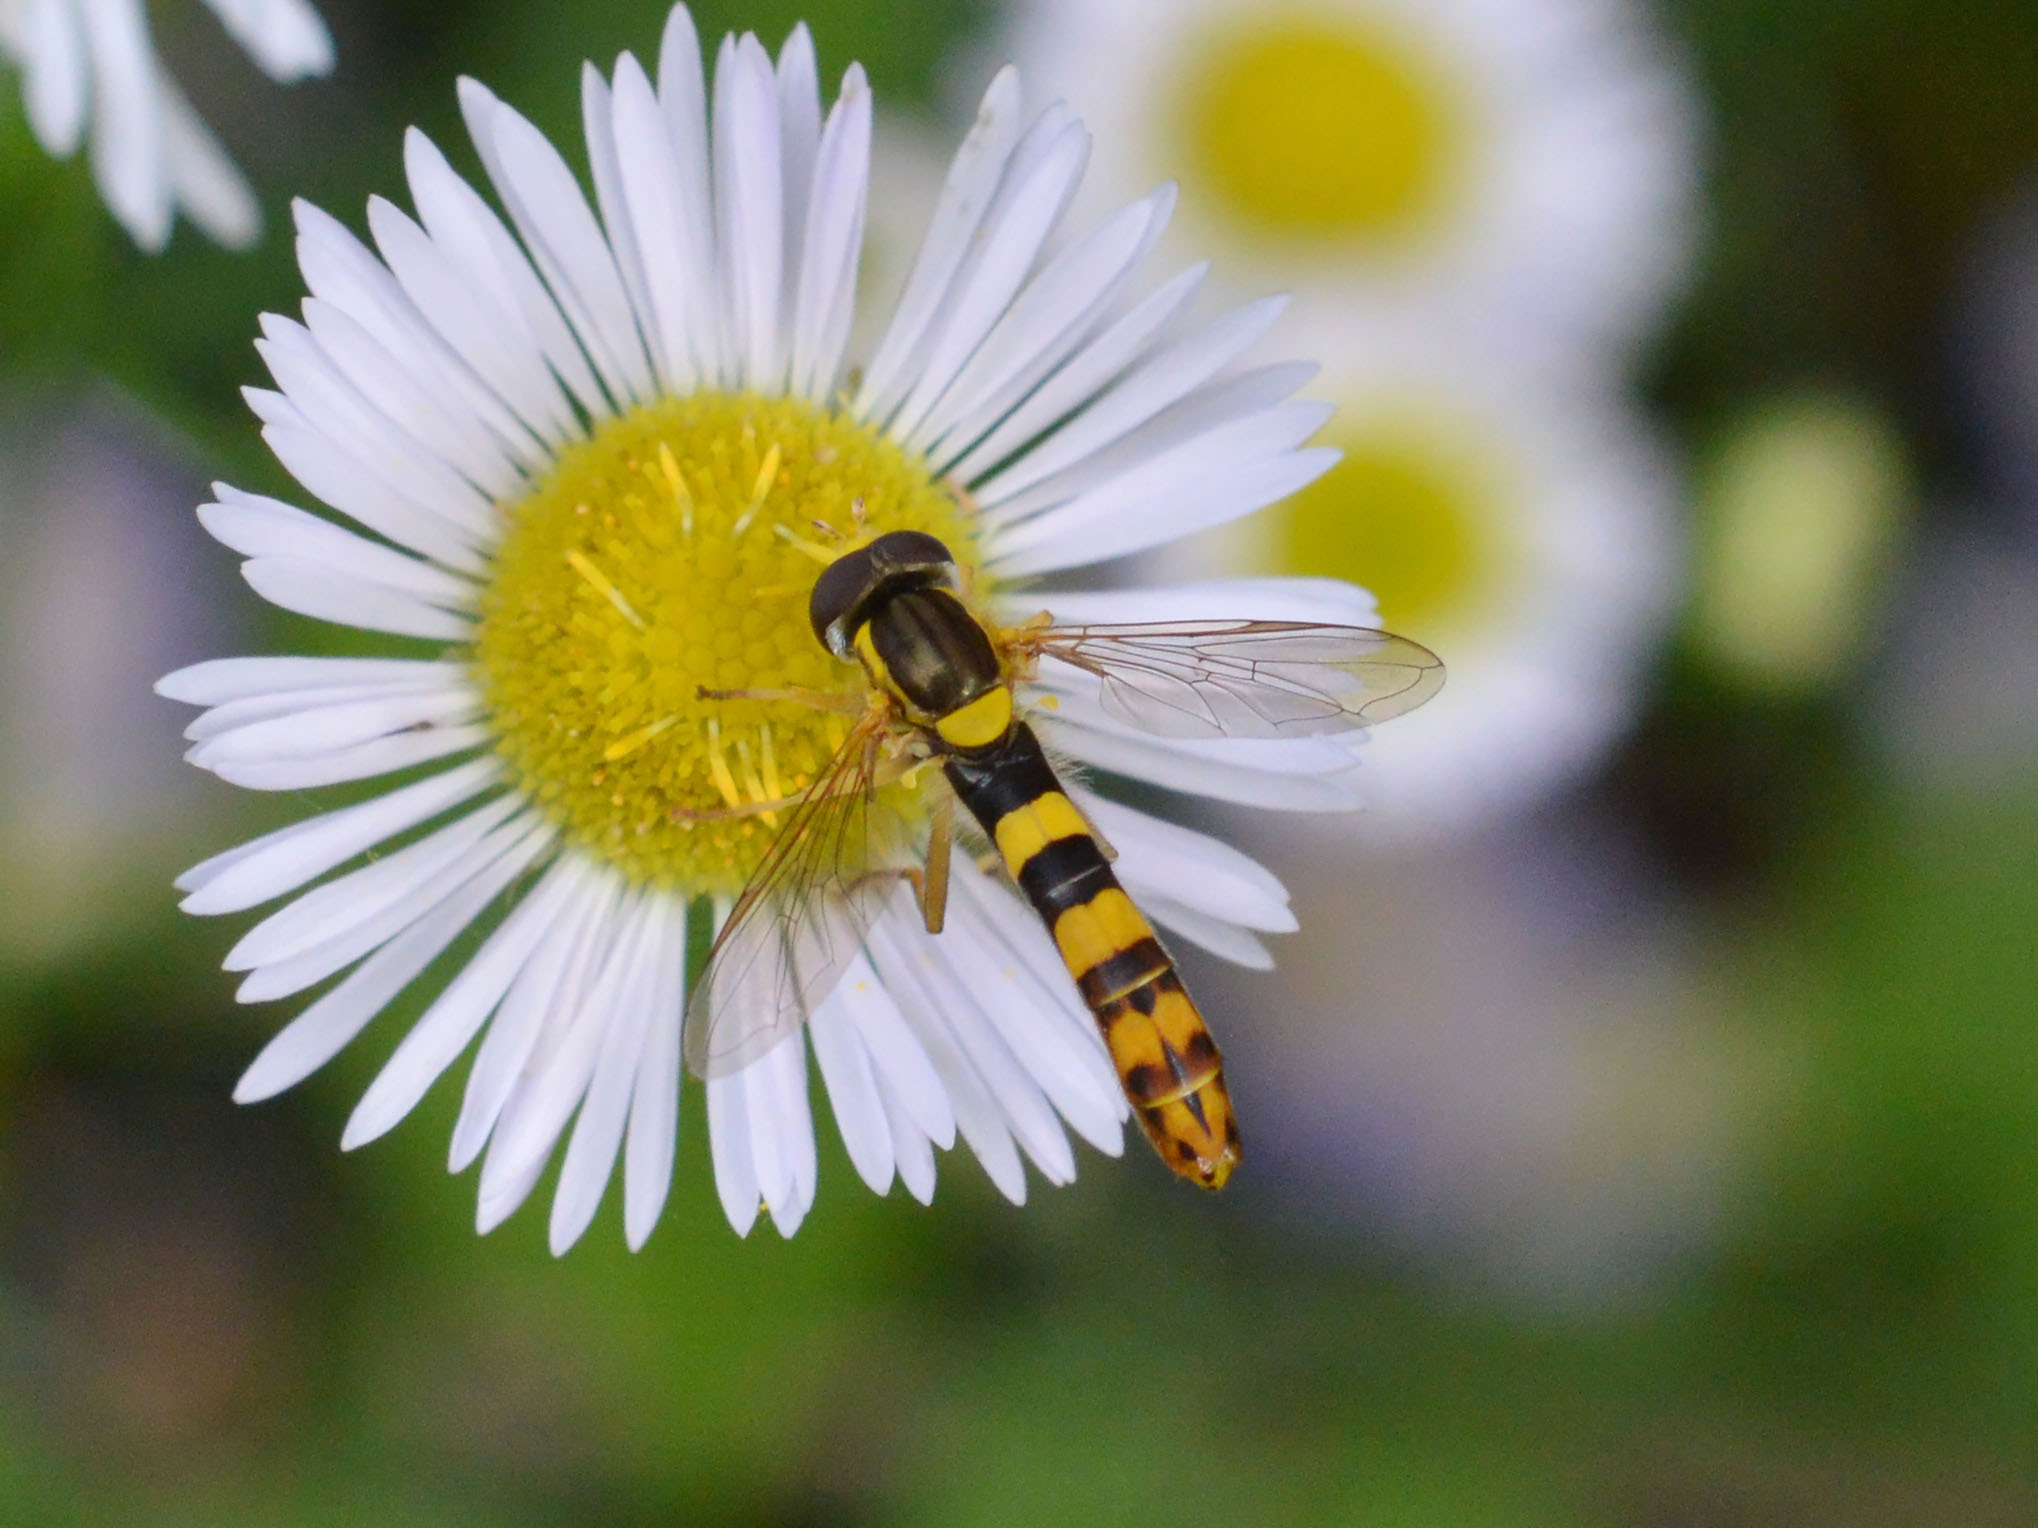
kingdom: Animalia
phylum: Arthropoda
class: Insecta
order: Diptera
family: Syrphidae
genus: Sphaerophoria
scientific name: Sphaerophoria scripta
